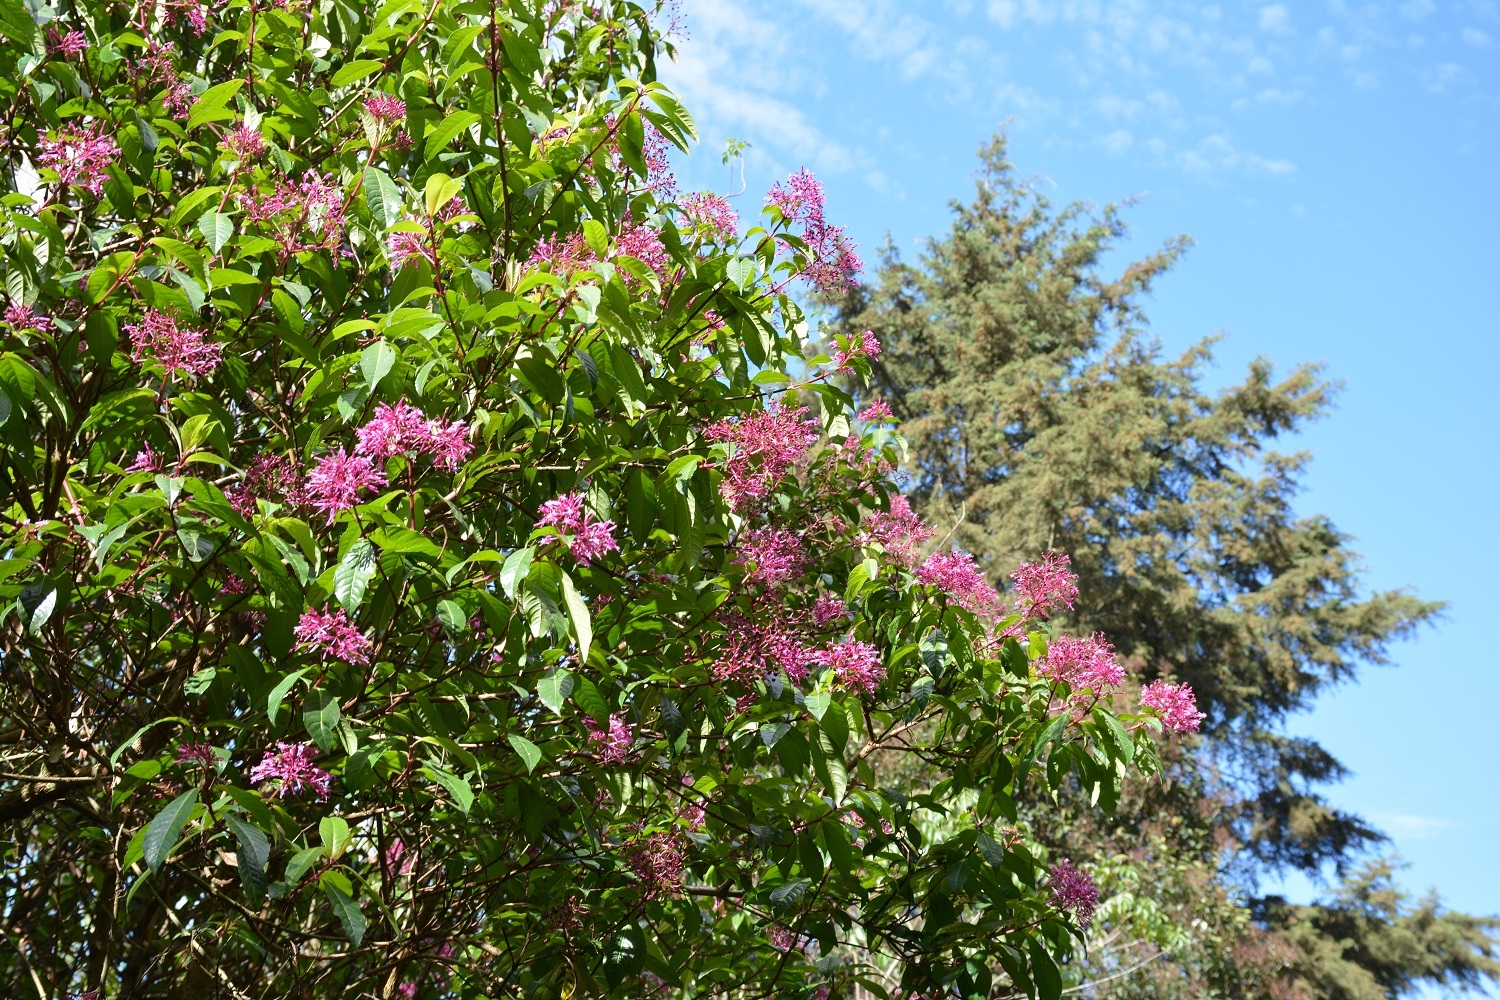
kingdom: Plantae
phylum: Tracheophyta
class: Magnoliopsida
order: Myrtales
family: Onagraceae
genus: Fuchsia
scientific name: Fuchsia paniculata
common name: Shrubby fuchsia
